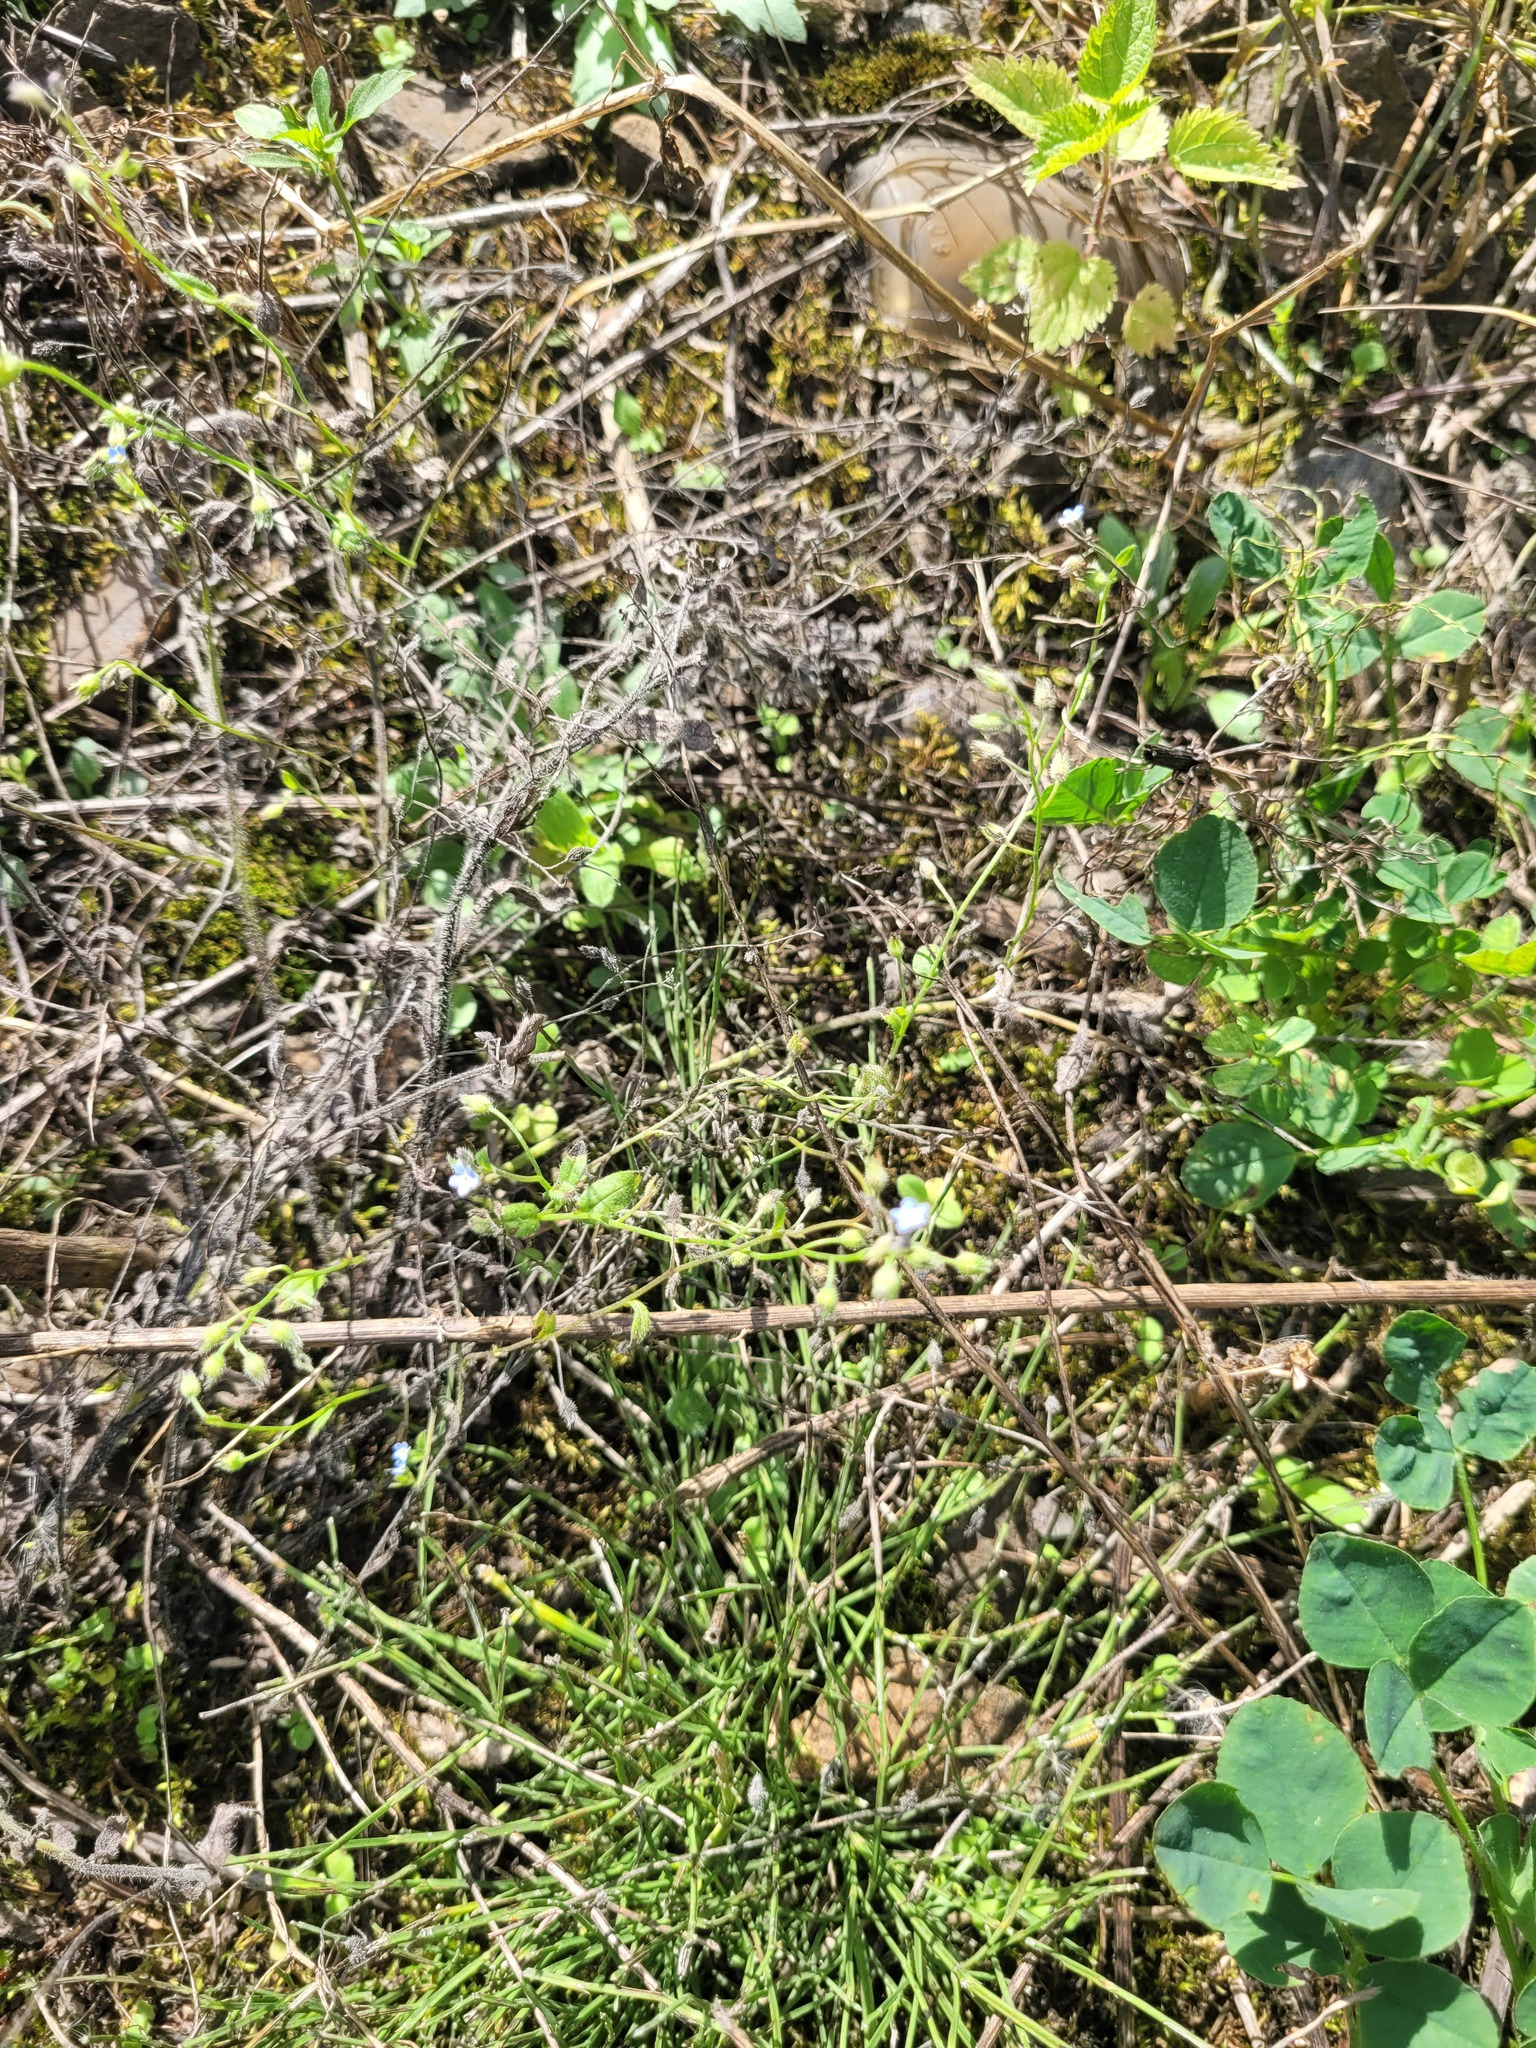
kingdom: Plantae
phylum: Tracheophyta
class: Magnoliopsida
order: Boraginales
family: Boraginaceae
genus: Myosotis
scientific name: Myosotis arvensis
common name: Field forget-me-not
